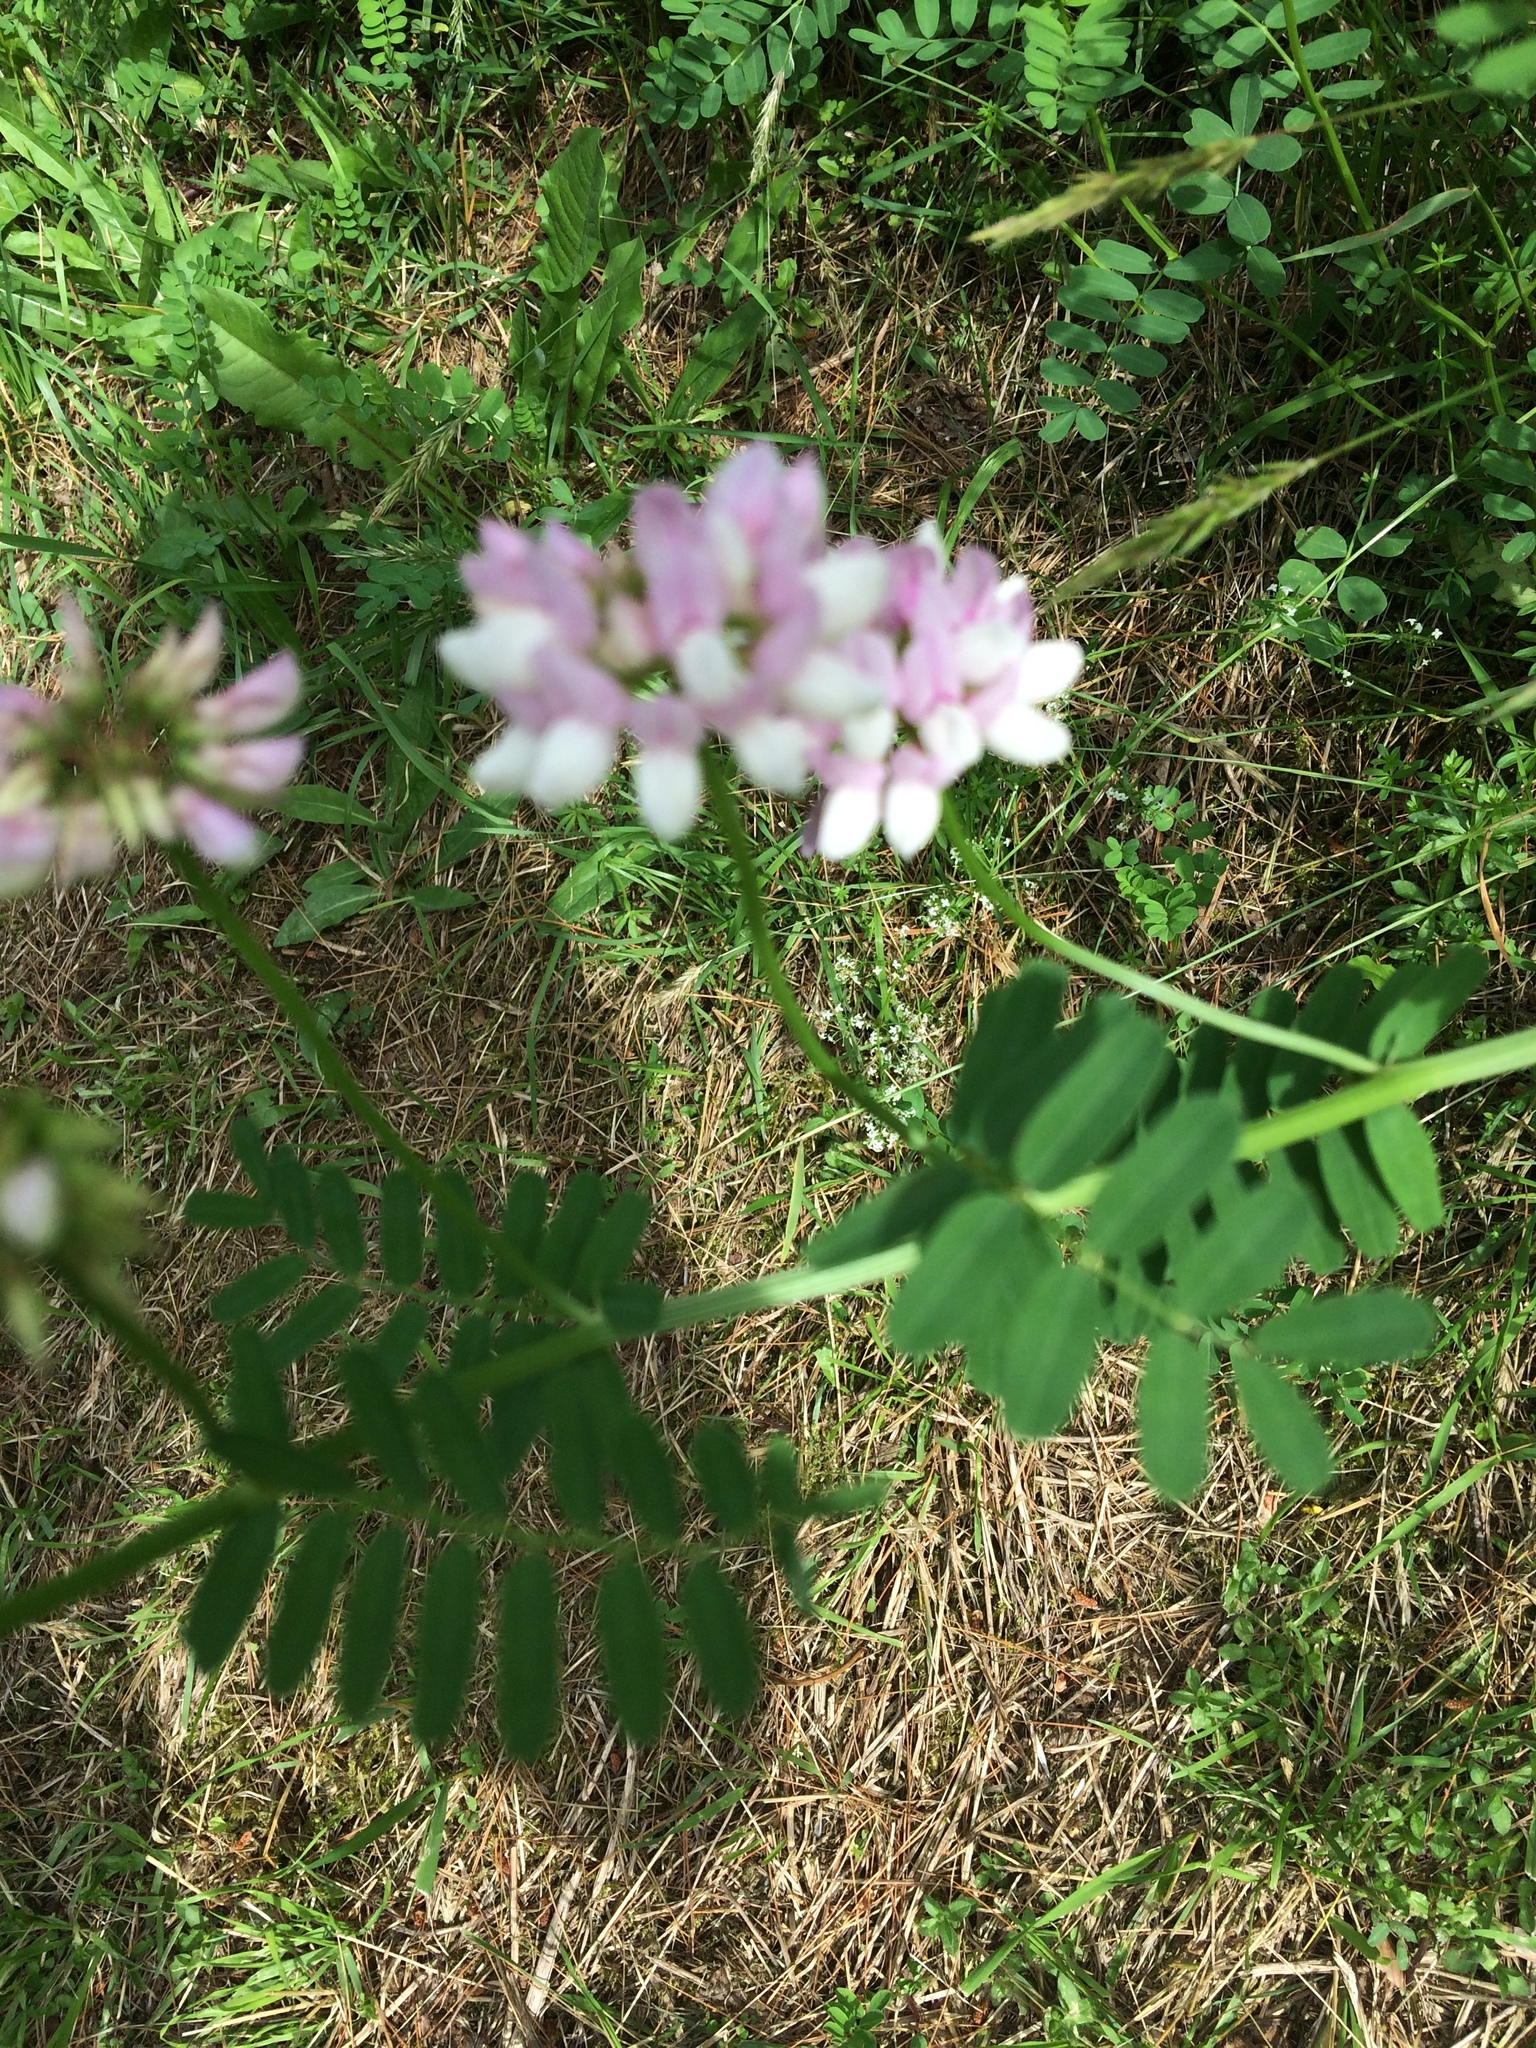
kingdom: Plantae
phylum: Tracheophyta
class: Magnoliopsida
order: Fabales
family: Fabaceae
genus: Coronilla
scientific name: Coronilla varia
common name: Crownvetch
